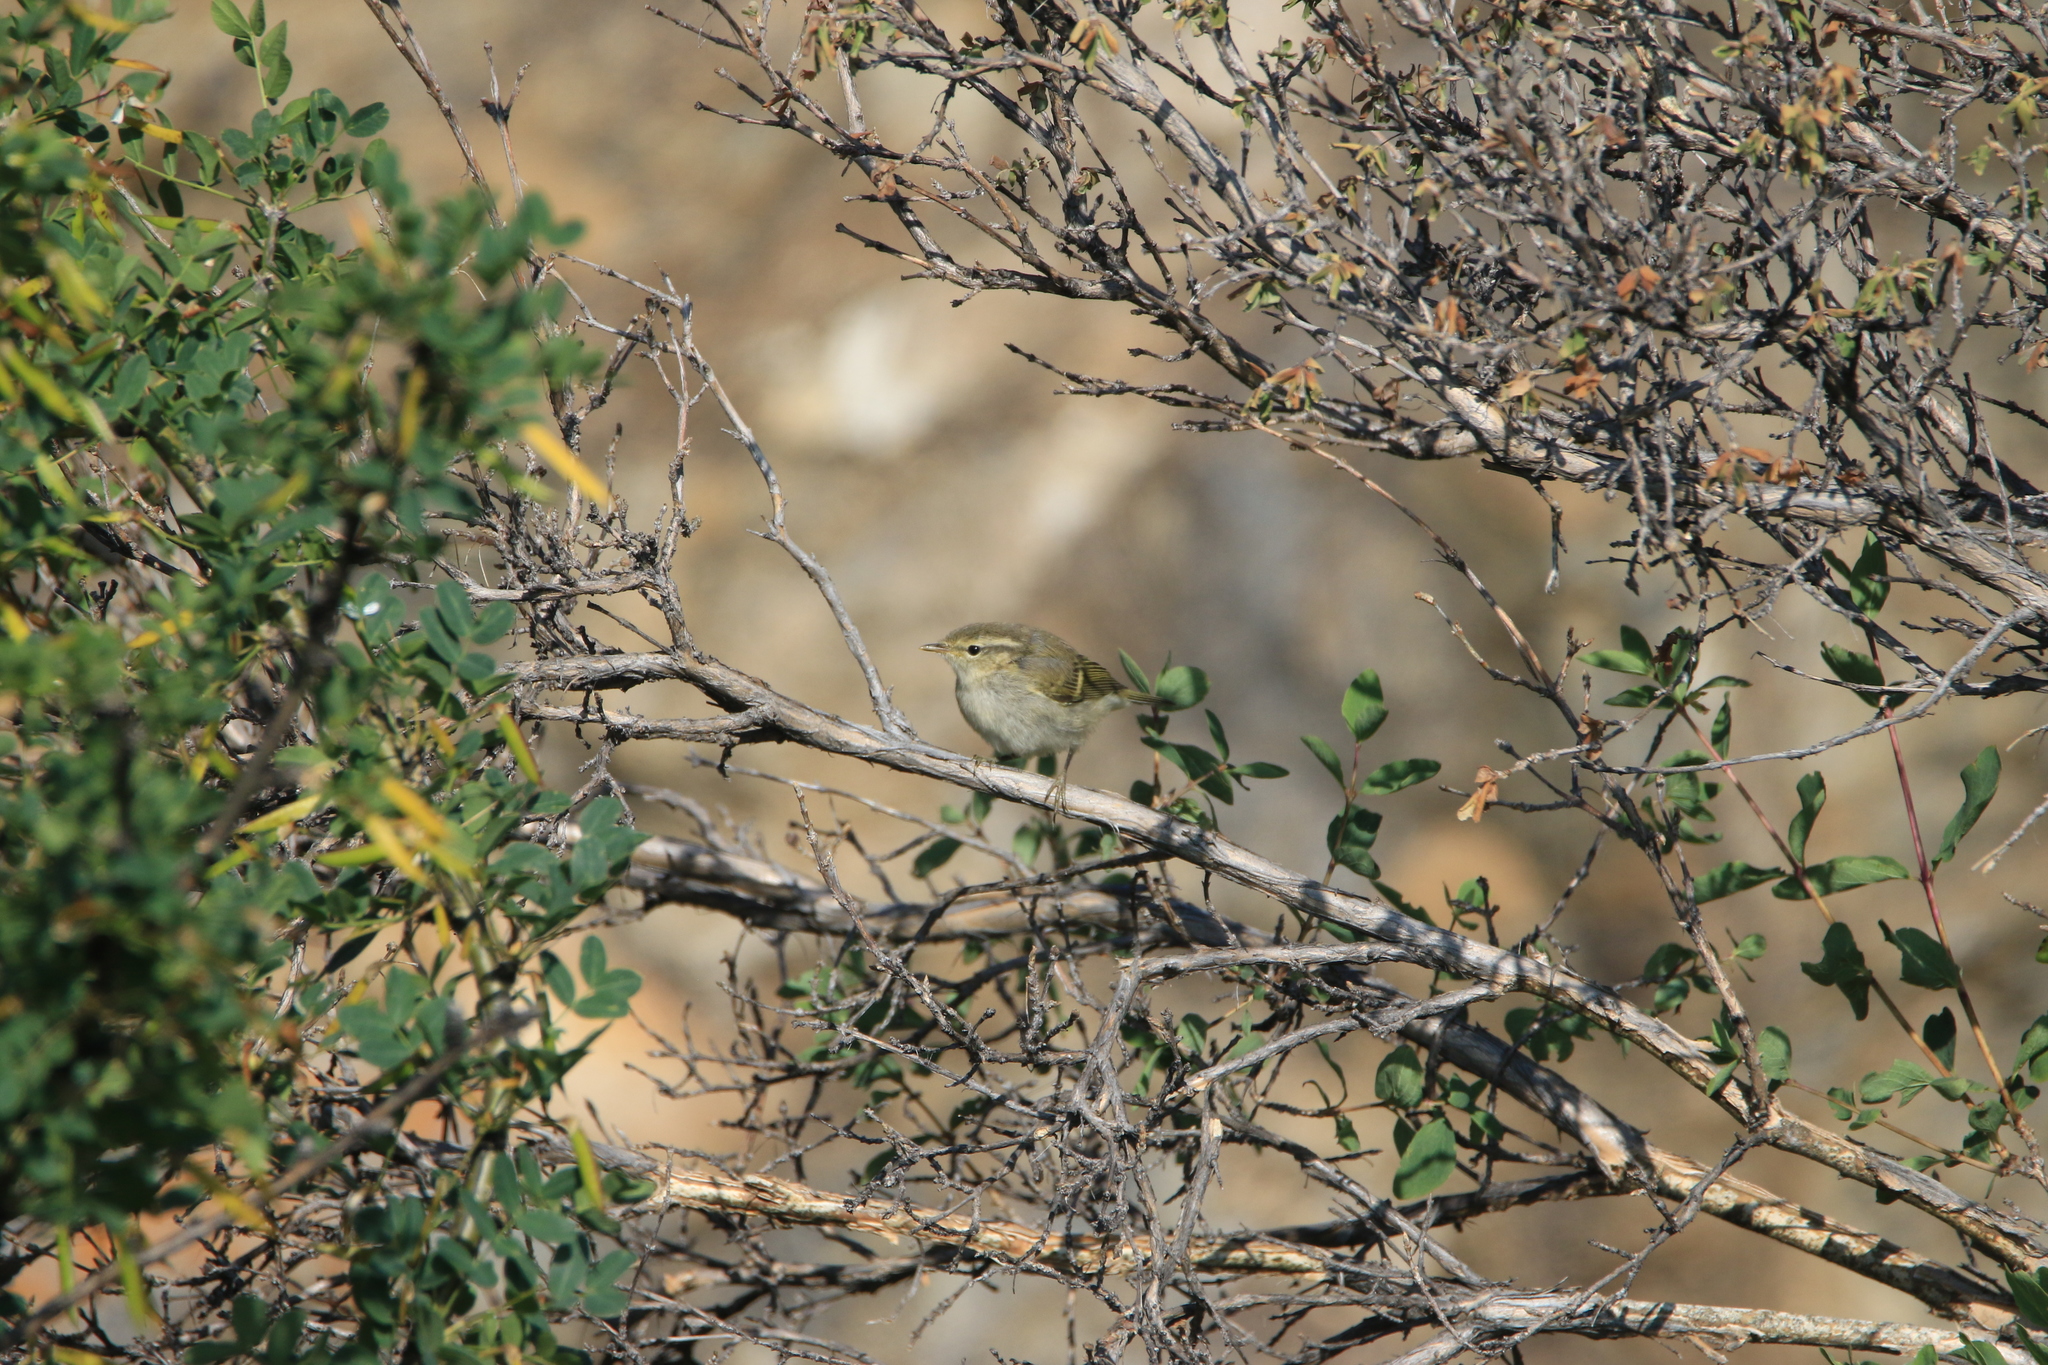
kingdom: Animalia
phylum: Chordata
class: Aves
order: Passeriformes
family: Phylloscopidae
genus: Phylloscopus
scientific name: Phylloscopus humei
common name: Hume's leaf warbler
